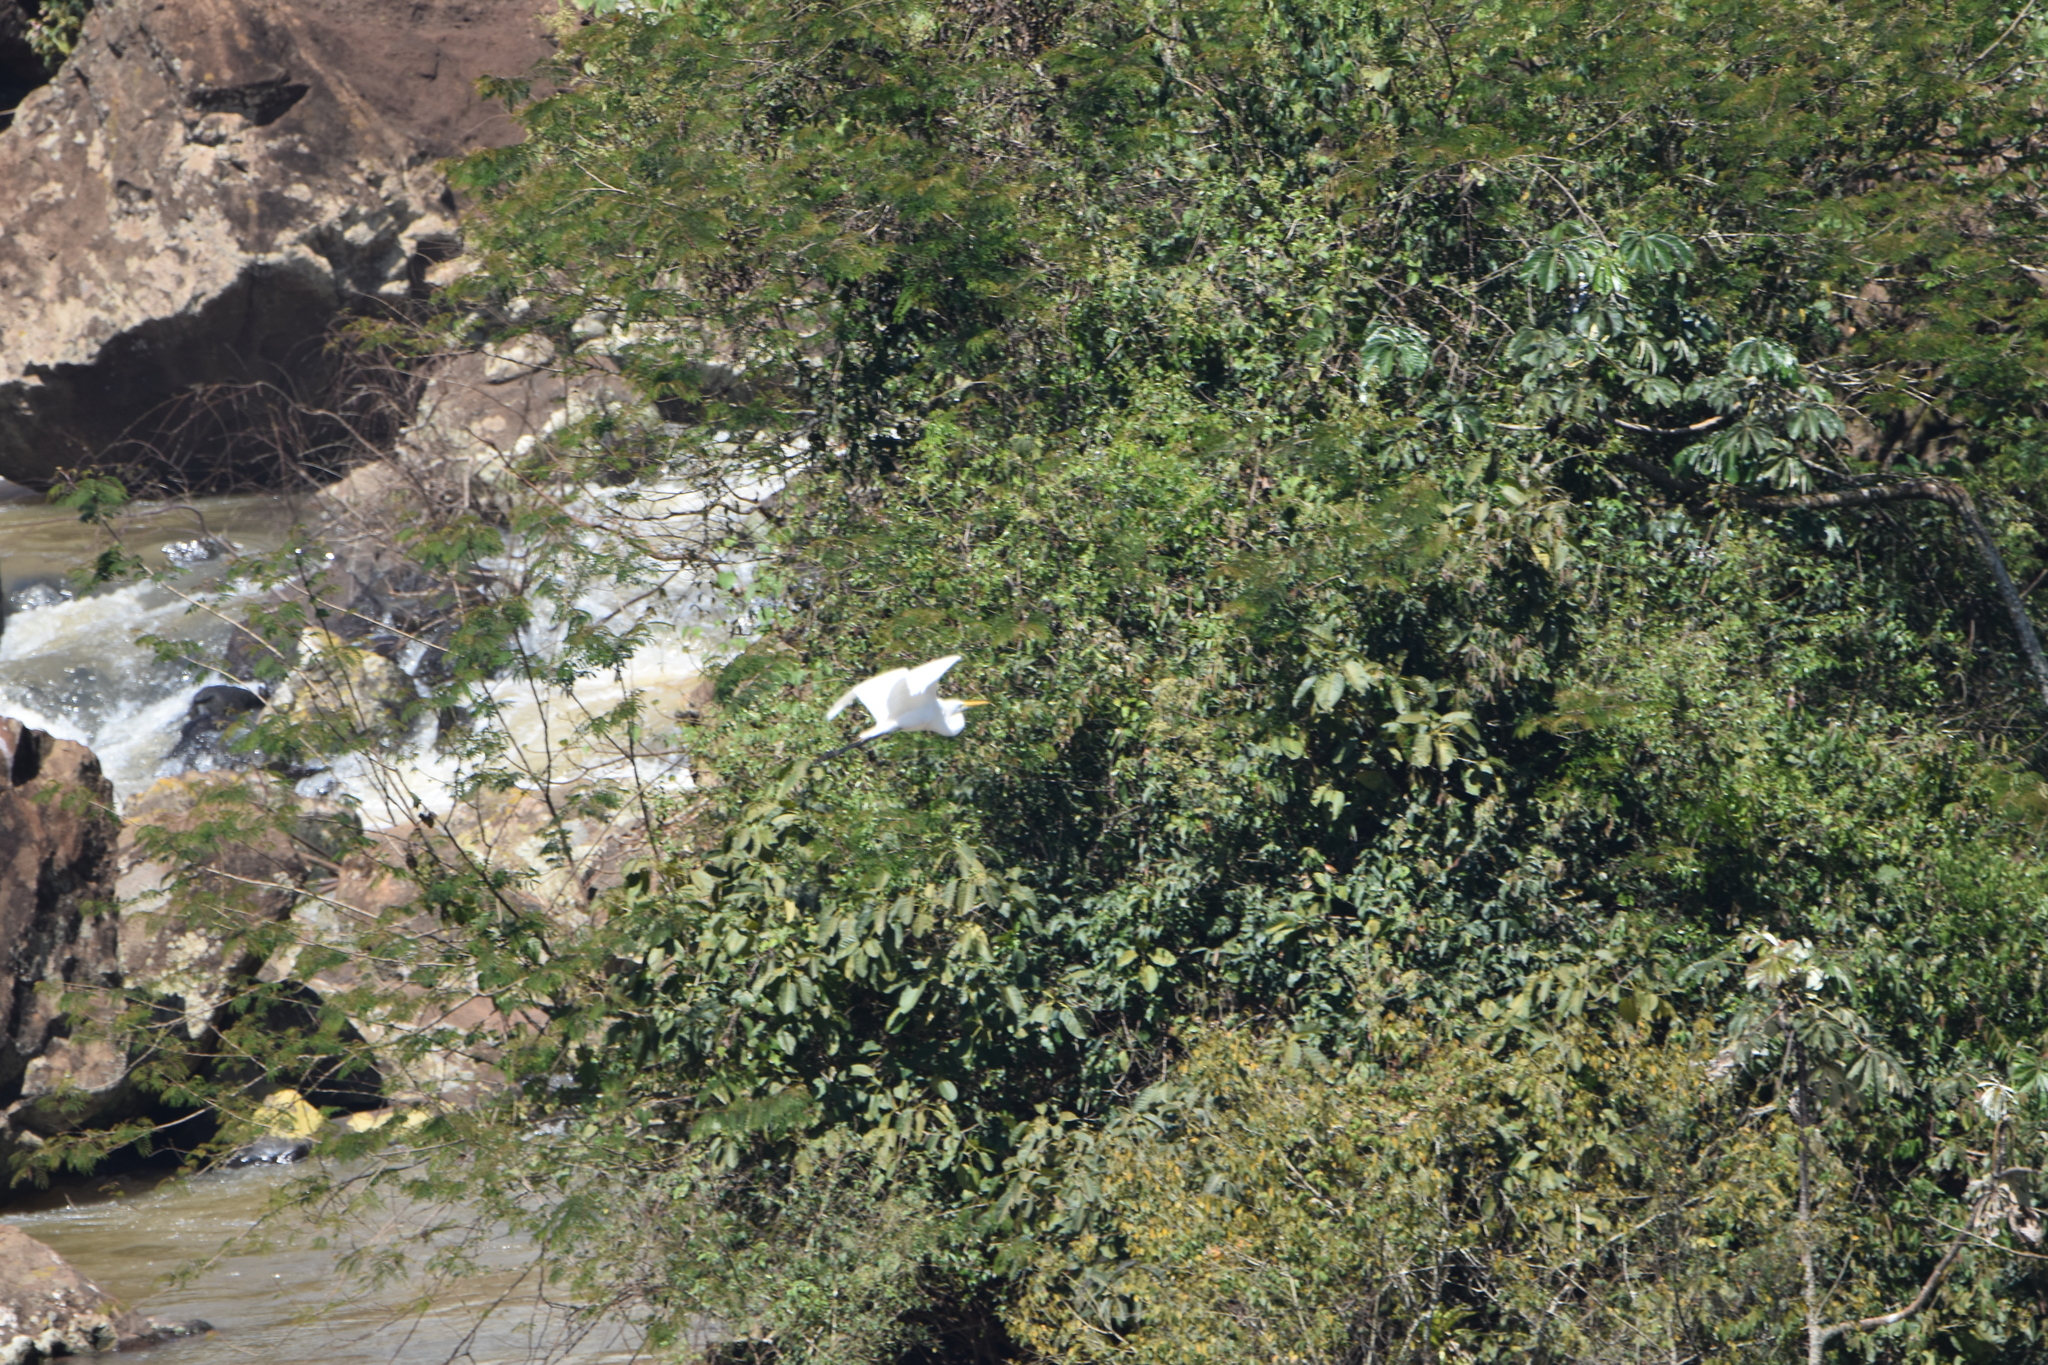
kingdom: Animalia
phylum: Chordata
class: Aves
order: Pelecaniformes
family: Ardeidae
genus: Ardea
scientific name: Ardea alba
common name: Great egret
